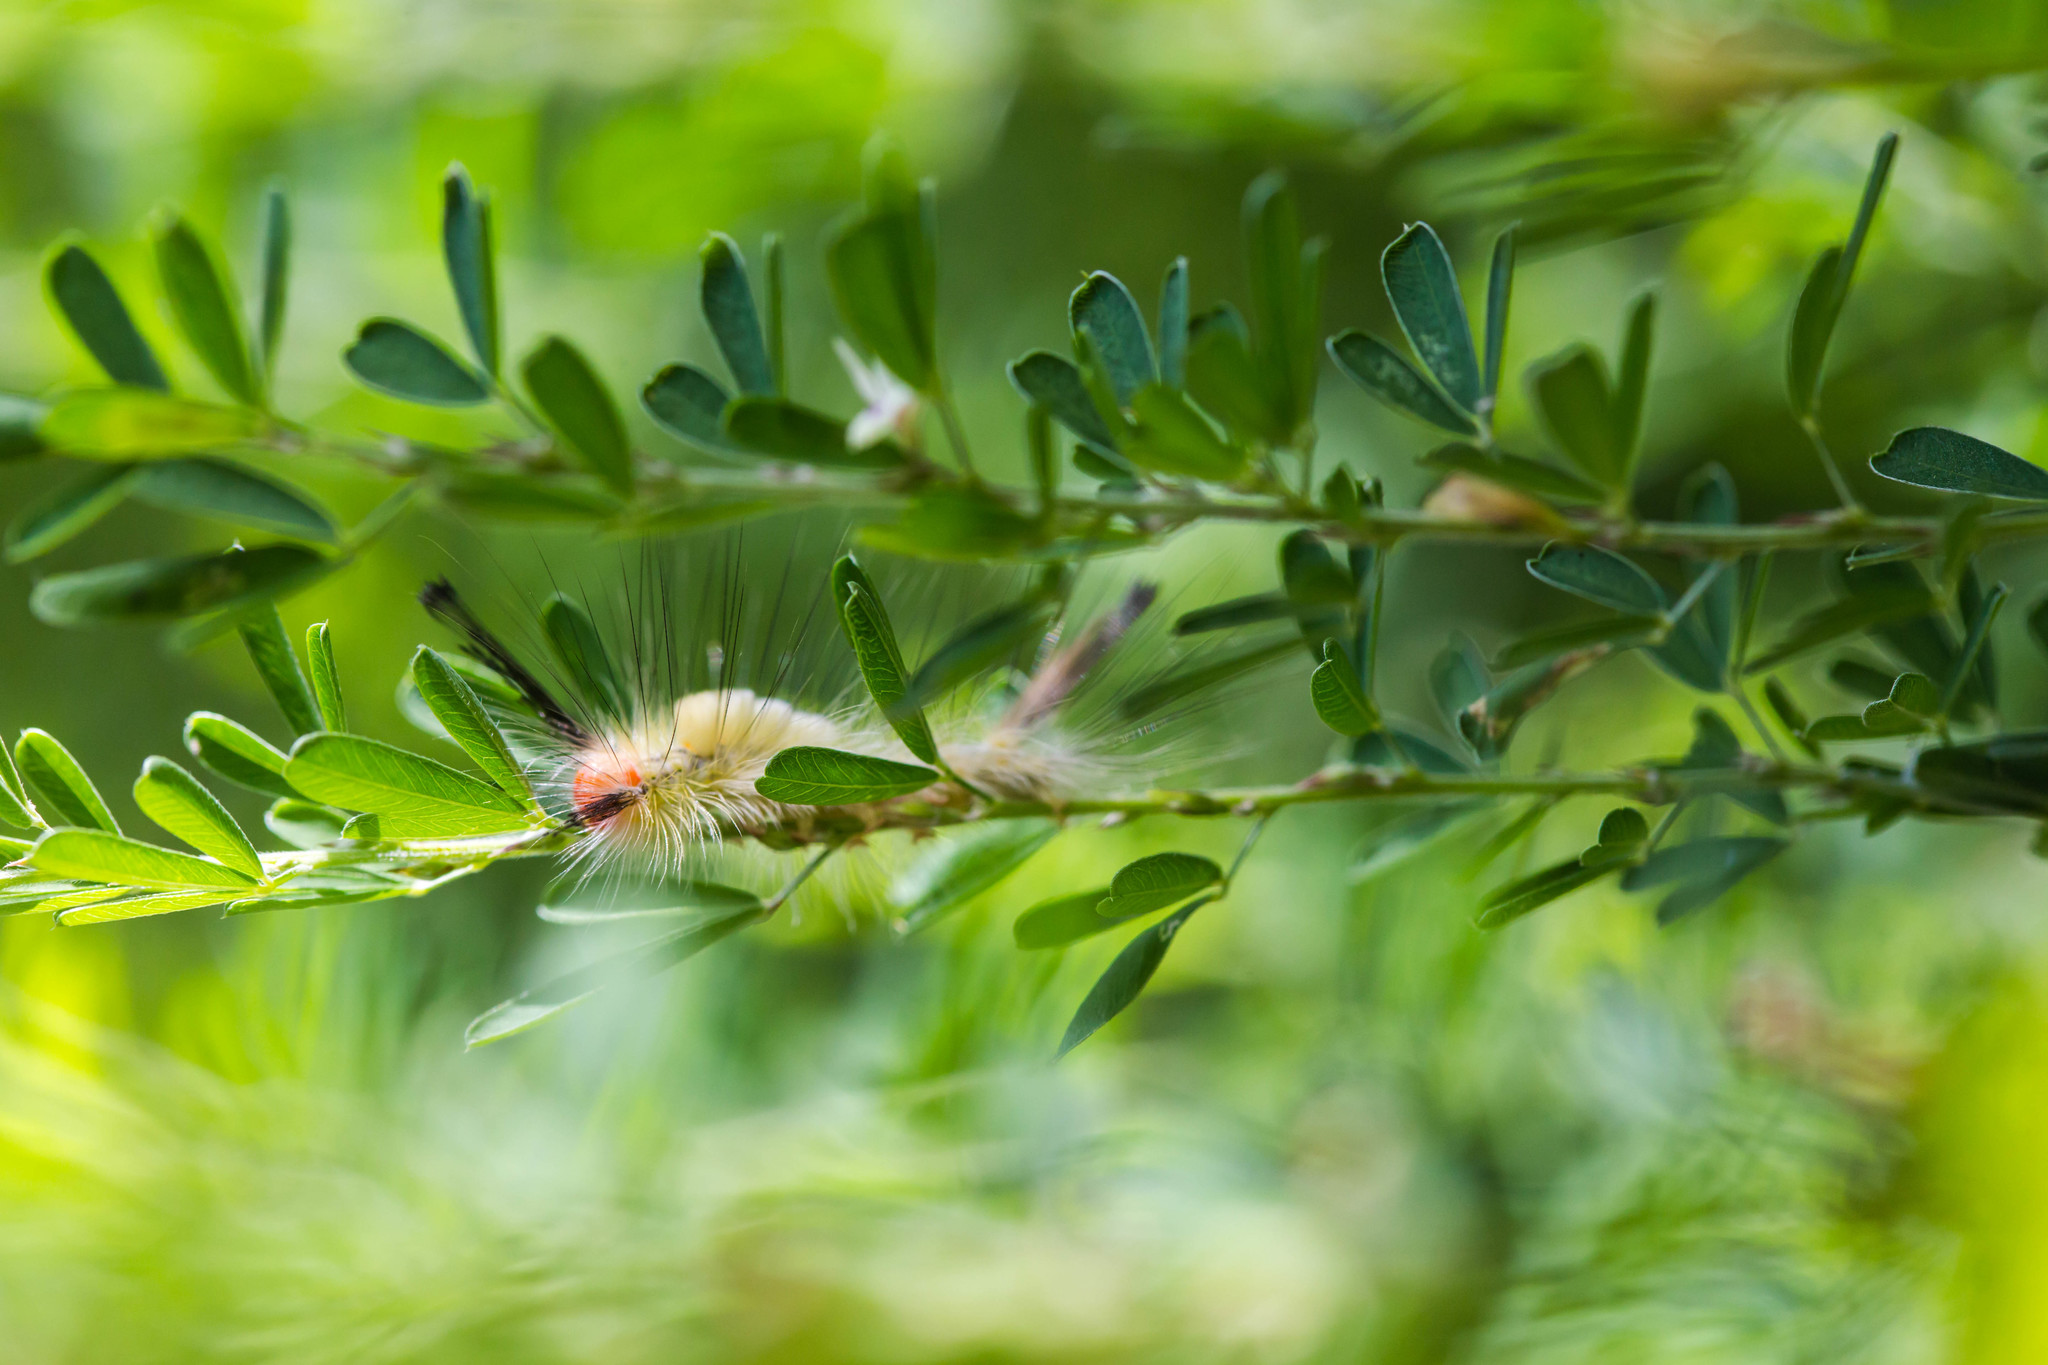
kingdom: Animalia
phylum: Arthropoda
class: Insecta
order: Lepidoptera
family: Erebidae
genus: Orgyia
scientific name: Orgyia leucostigma
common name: White-marked tussock moth
